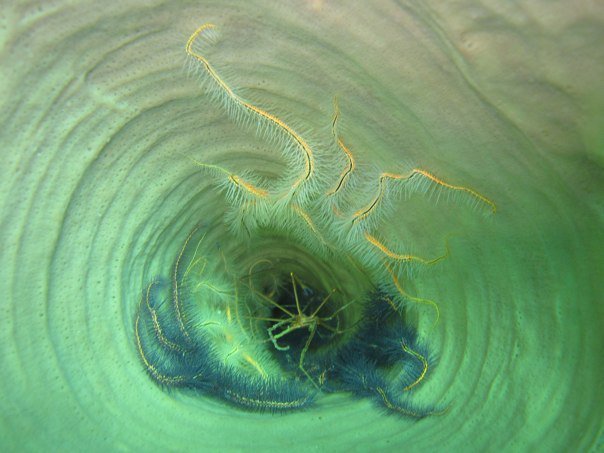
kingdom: Animalia
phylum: Echinodermata
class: Ophiuroidea
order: Amphilepidida
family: Ophiotrichidae
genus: Ophiothrix
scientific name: Ophiothrix suensonii
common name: Sponge brittle star
